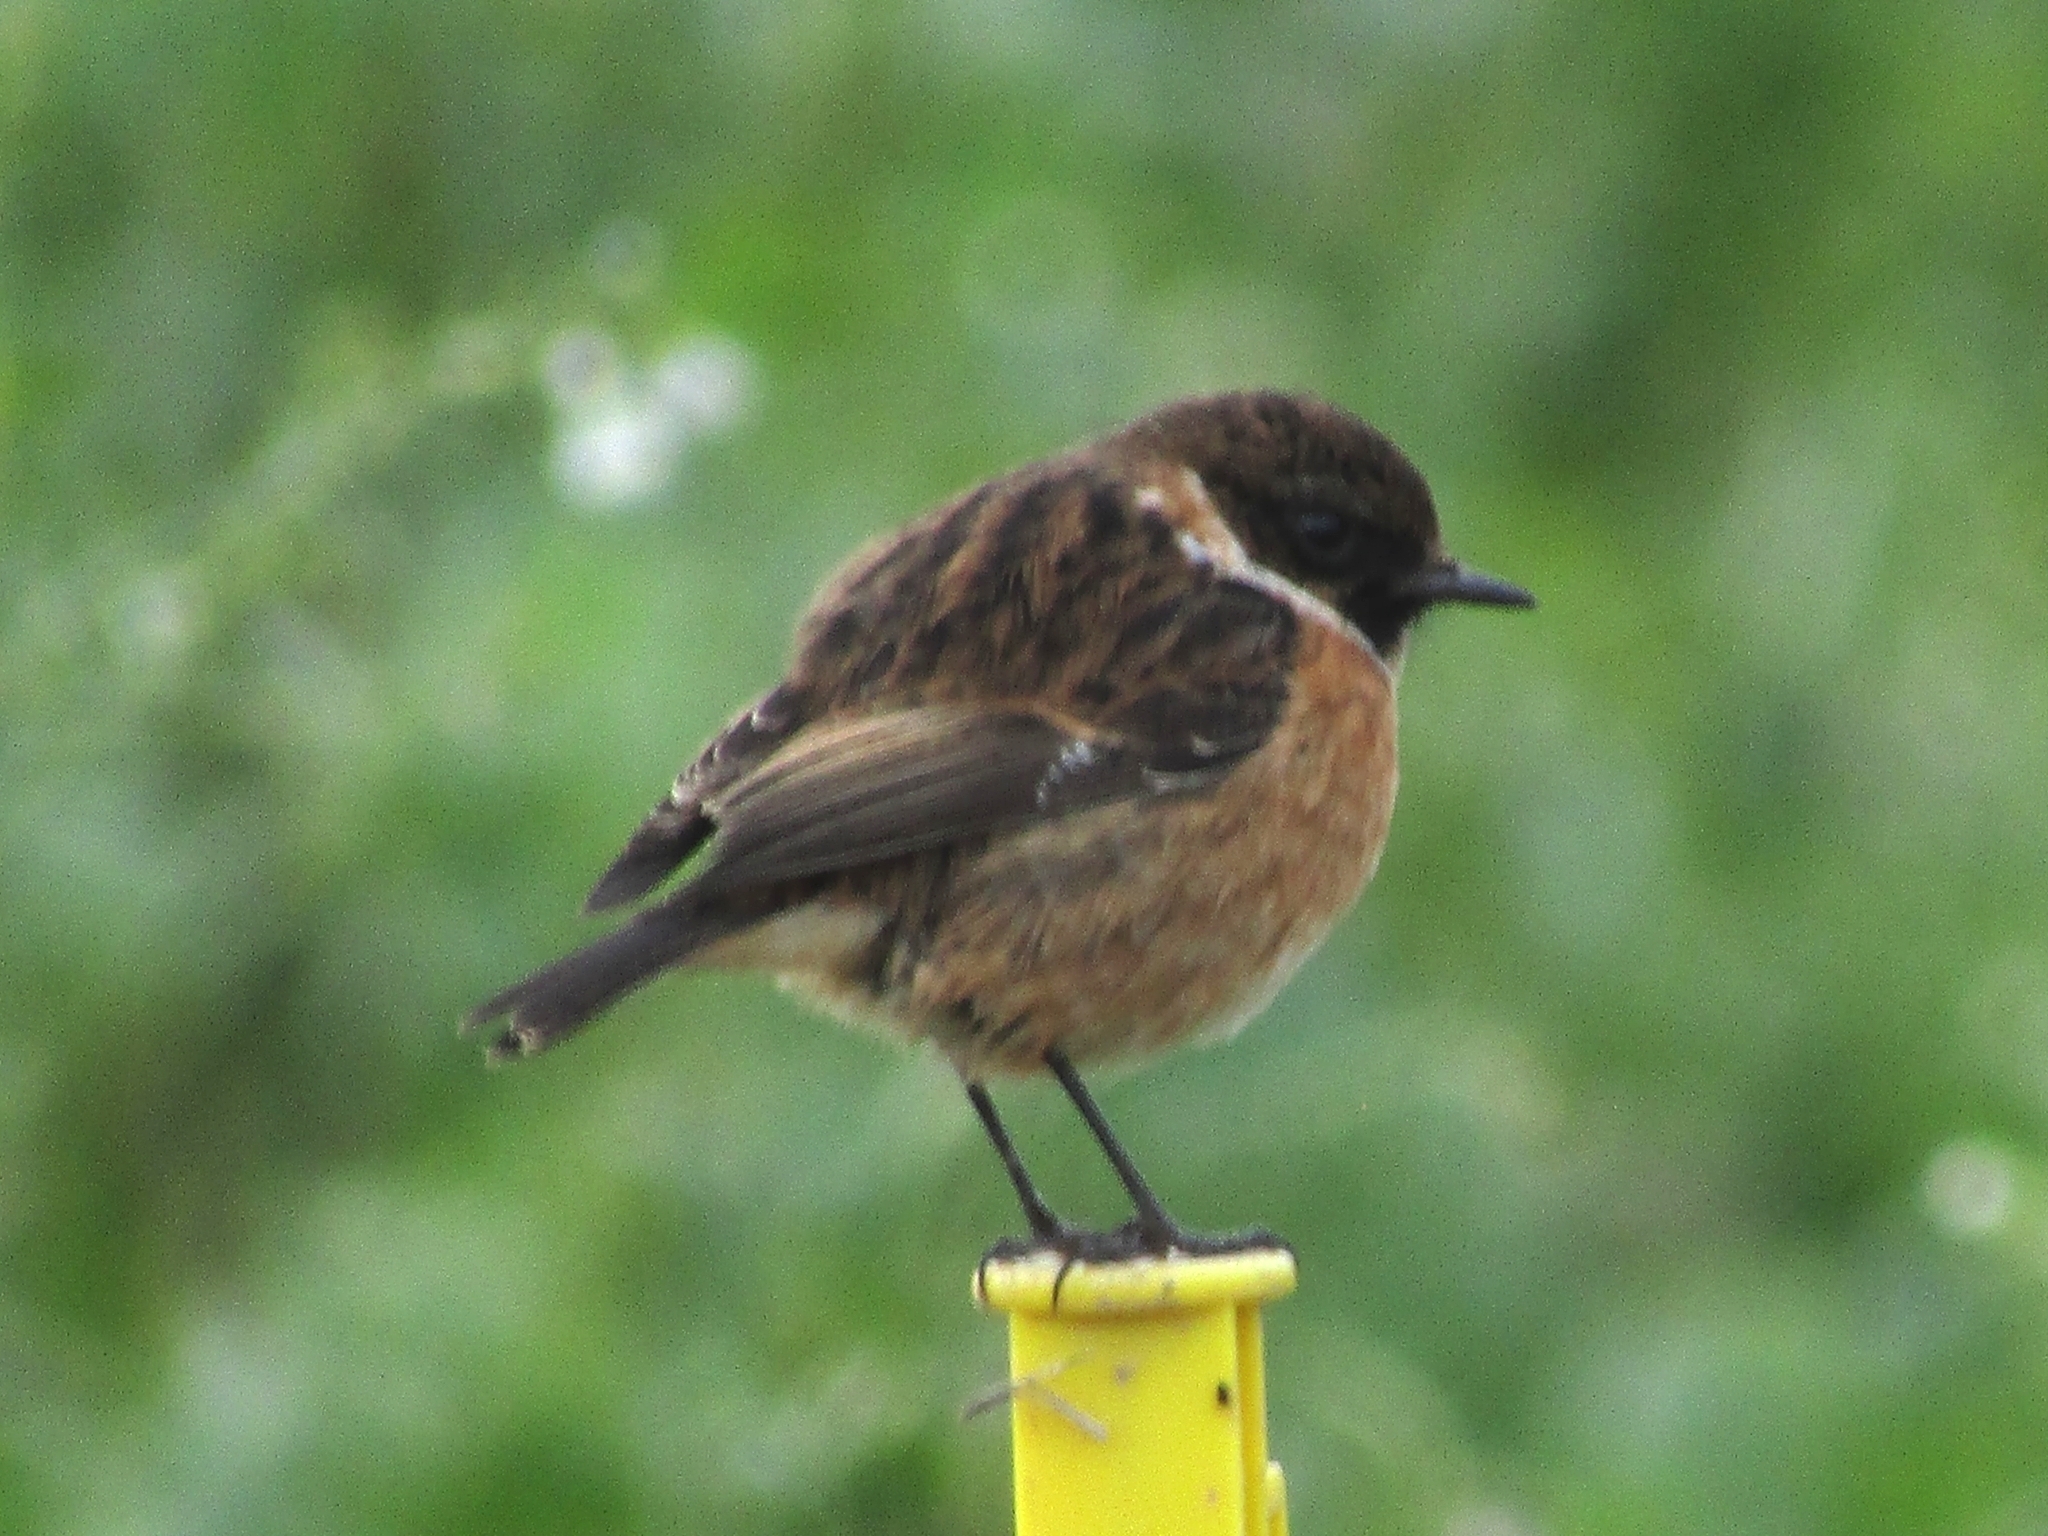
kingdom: Animalia
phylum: Chordata
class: Aves
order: Passeriformes
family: Muscicapidae
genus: Saxicola
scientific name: Saxicola rubicola
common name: European stonechat
